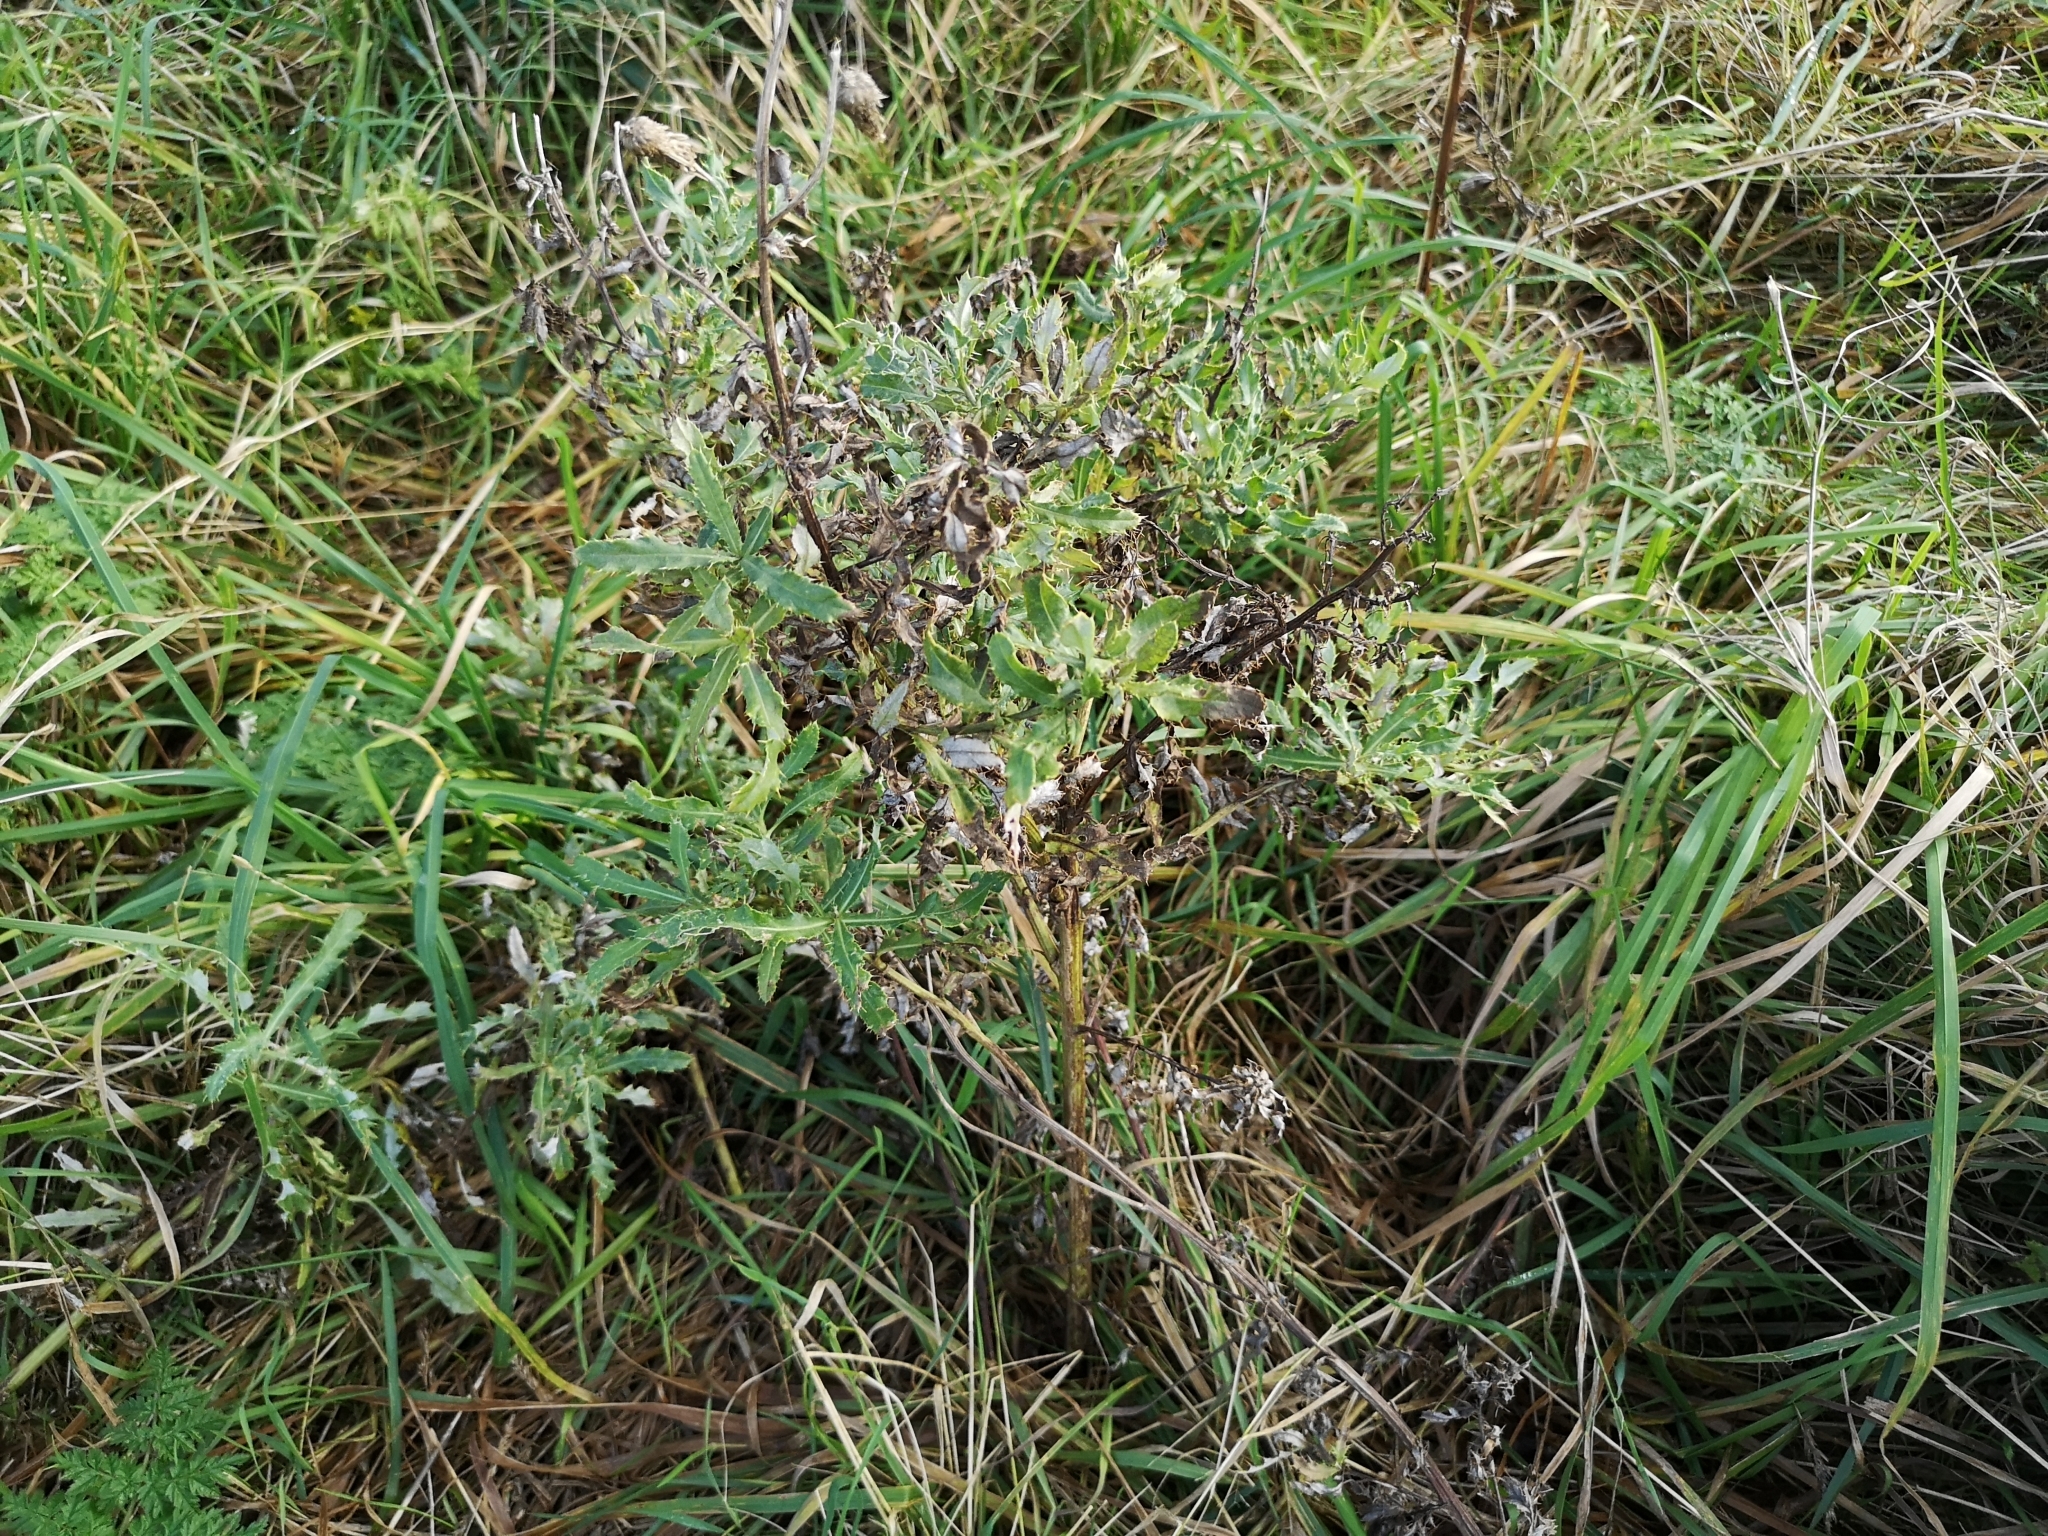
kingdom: Plantae
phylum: Tracheophyta
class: Magnoliopsida
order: Asterales
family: Asteraceae
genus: Cirsium
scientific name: Cirsium arvense
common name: Creeping thistle
